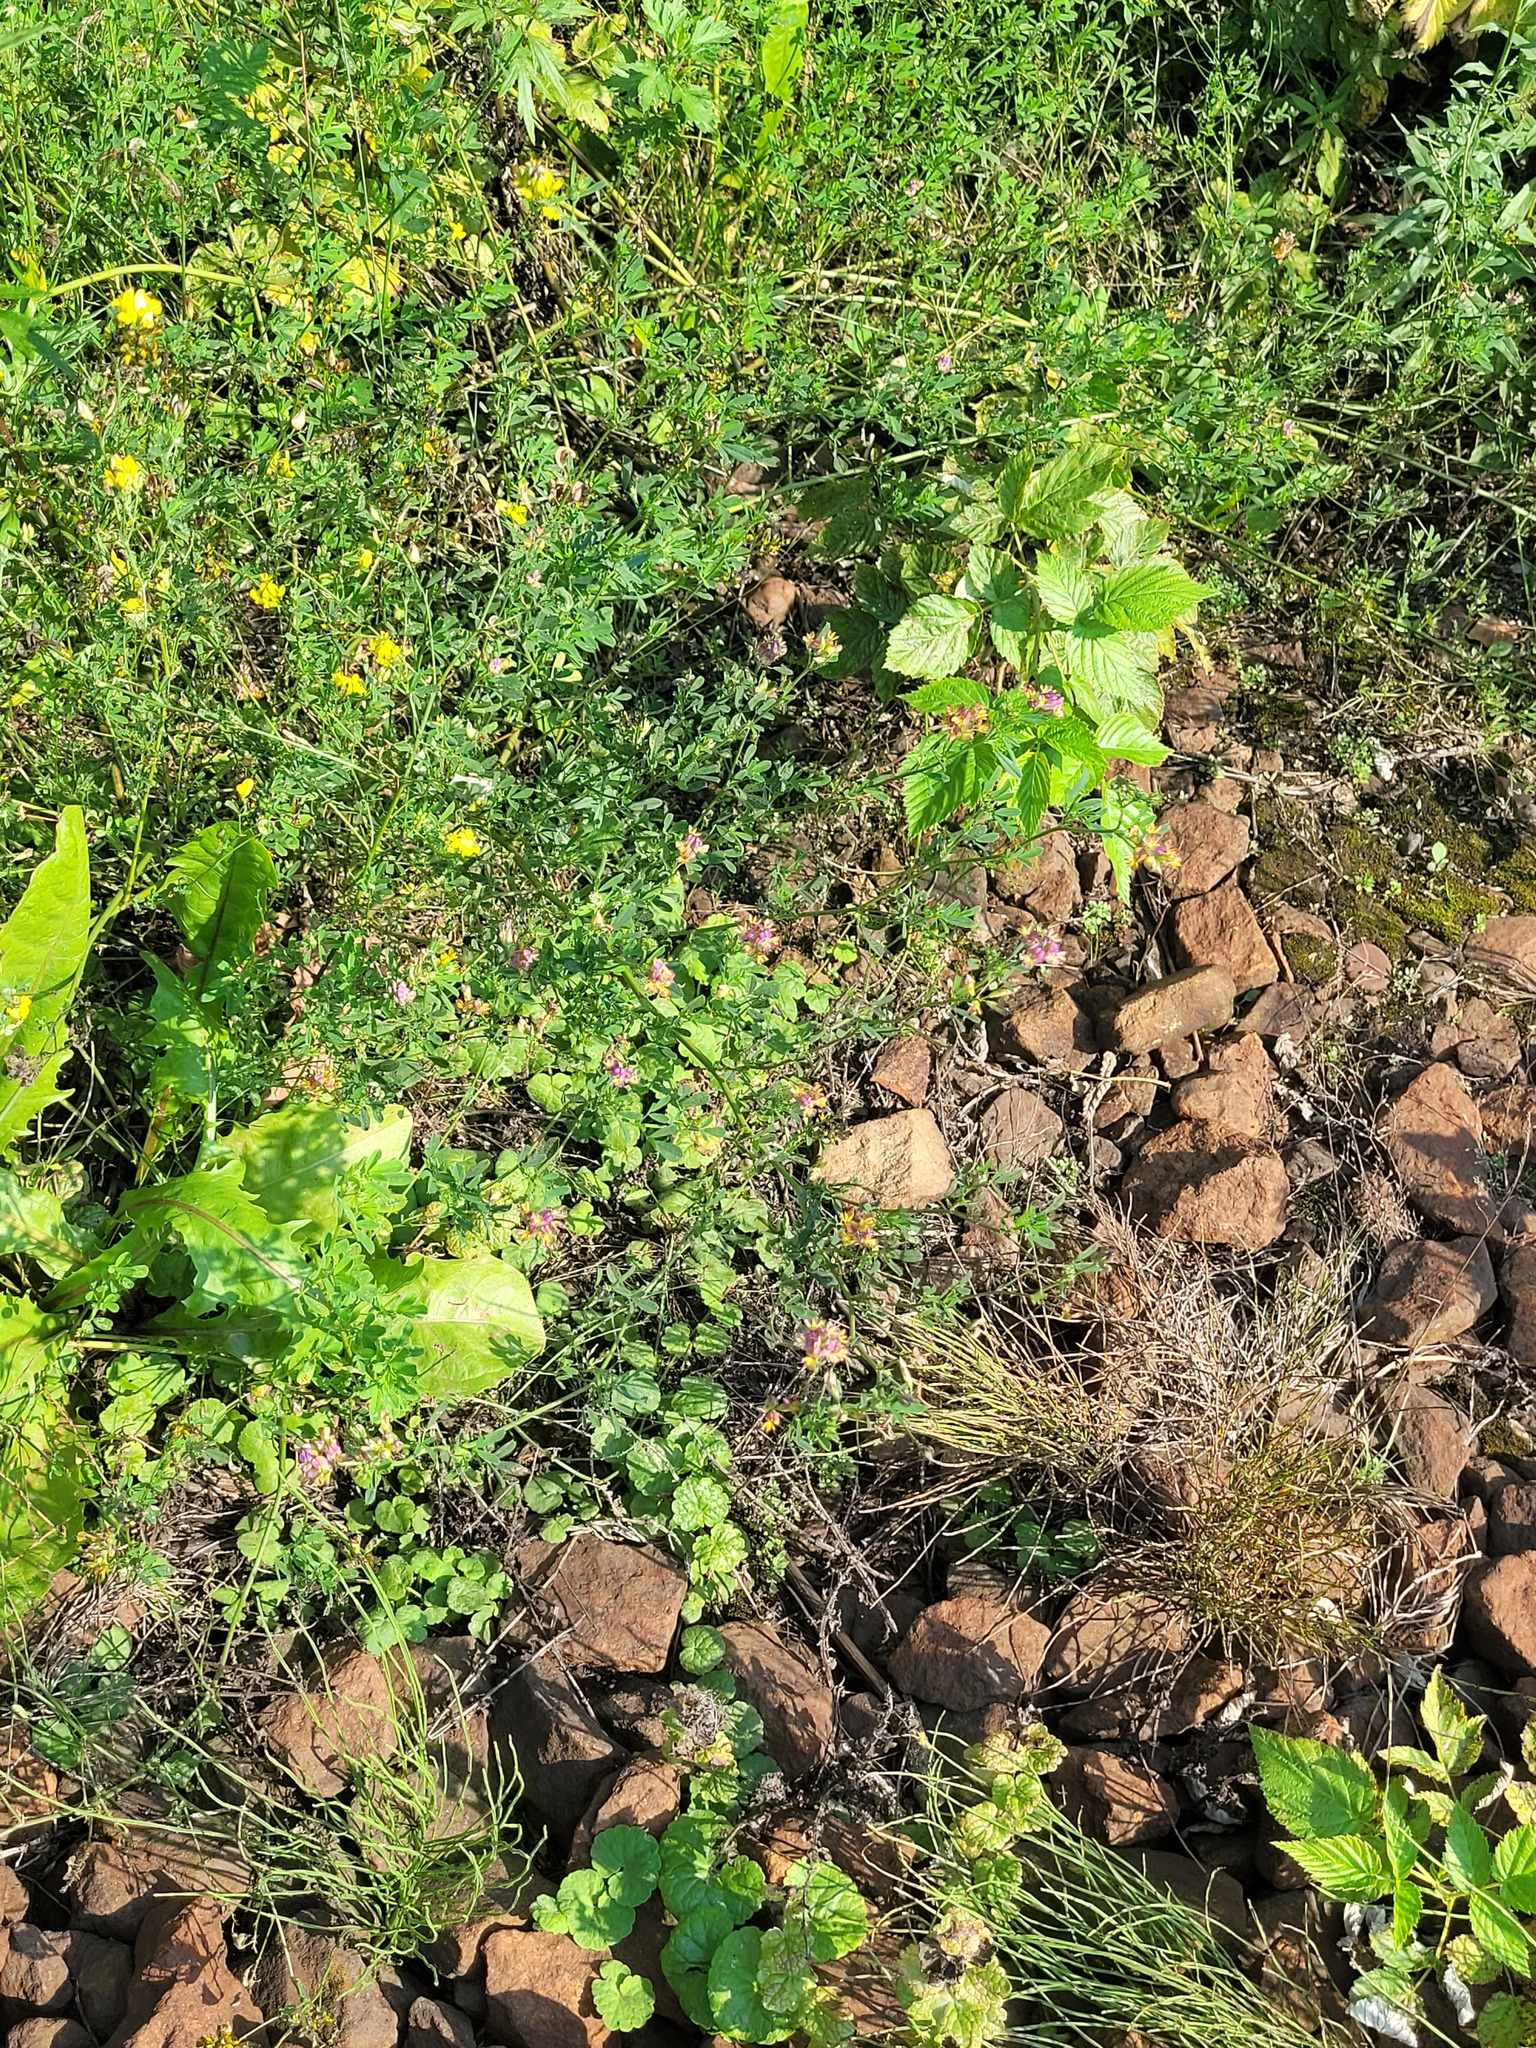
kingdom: Plantae
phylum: Tracheophyta
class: Magnoliopsida
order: Fabales
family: Fabaceae
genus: Medicago
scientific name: Medicago varia
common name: Sand lucerne
